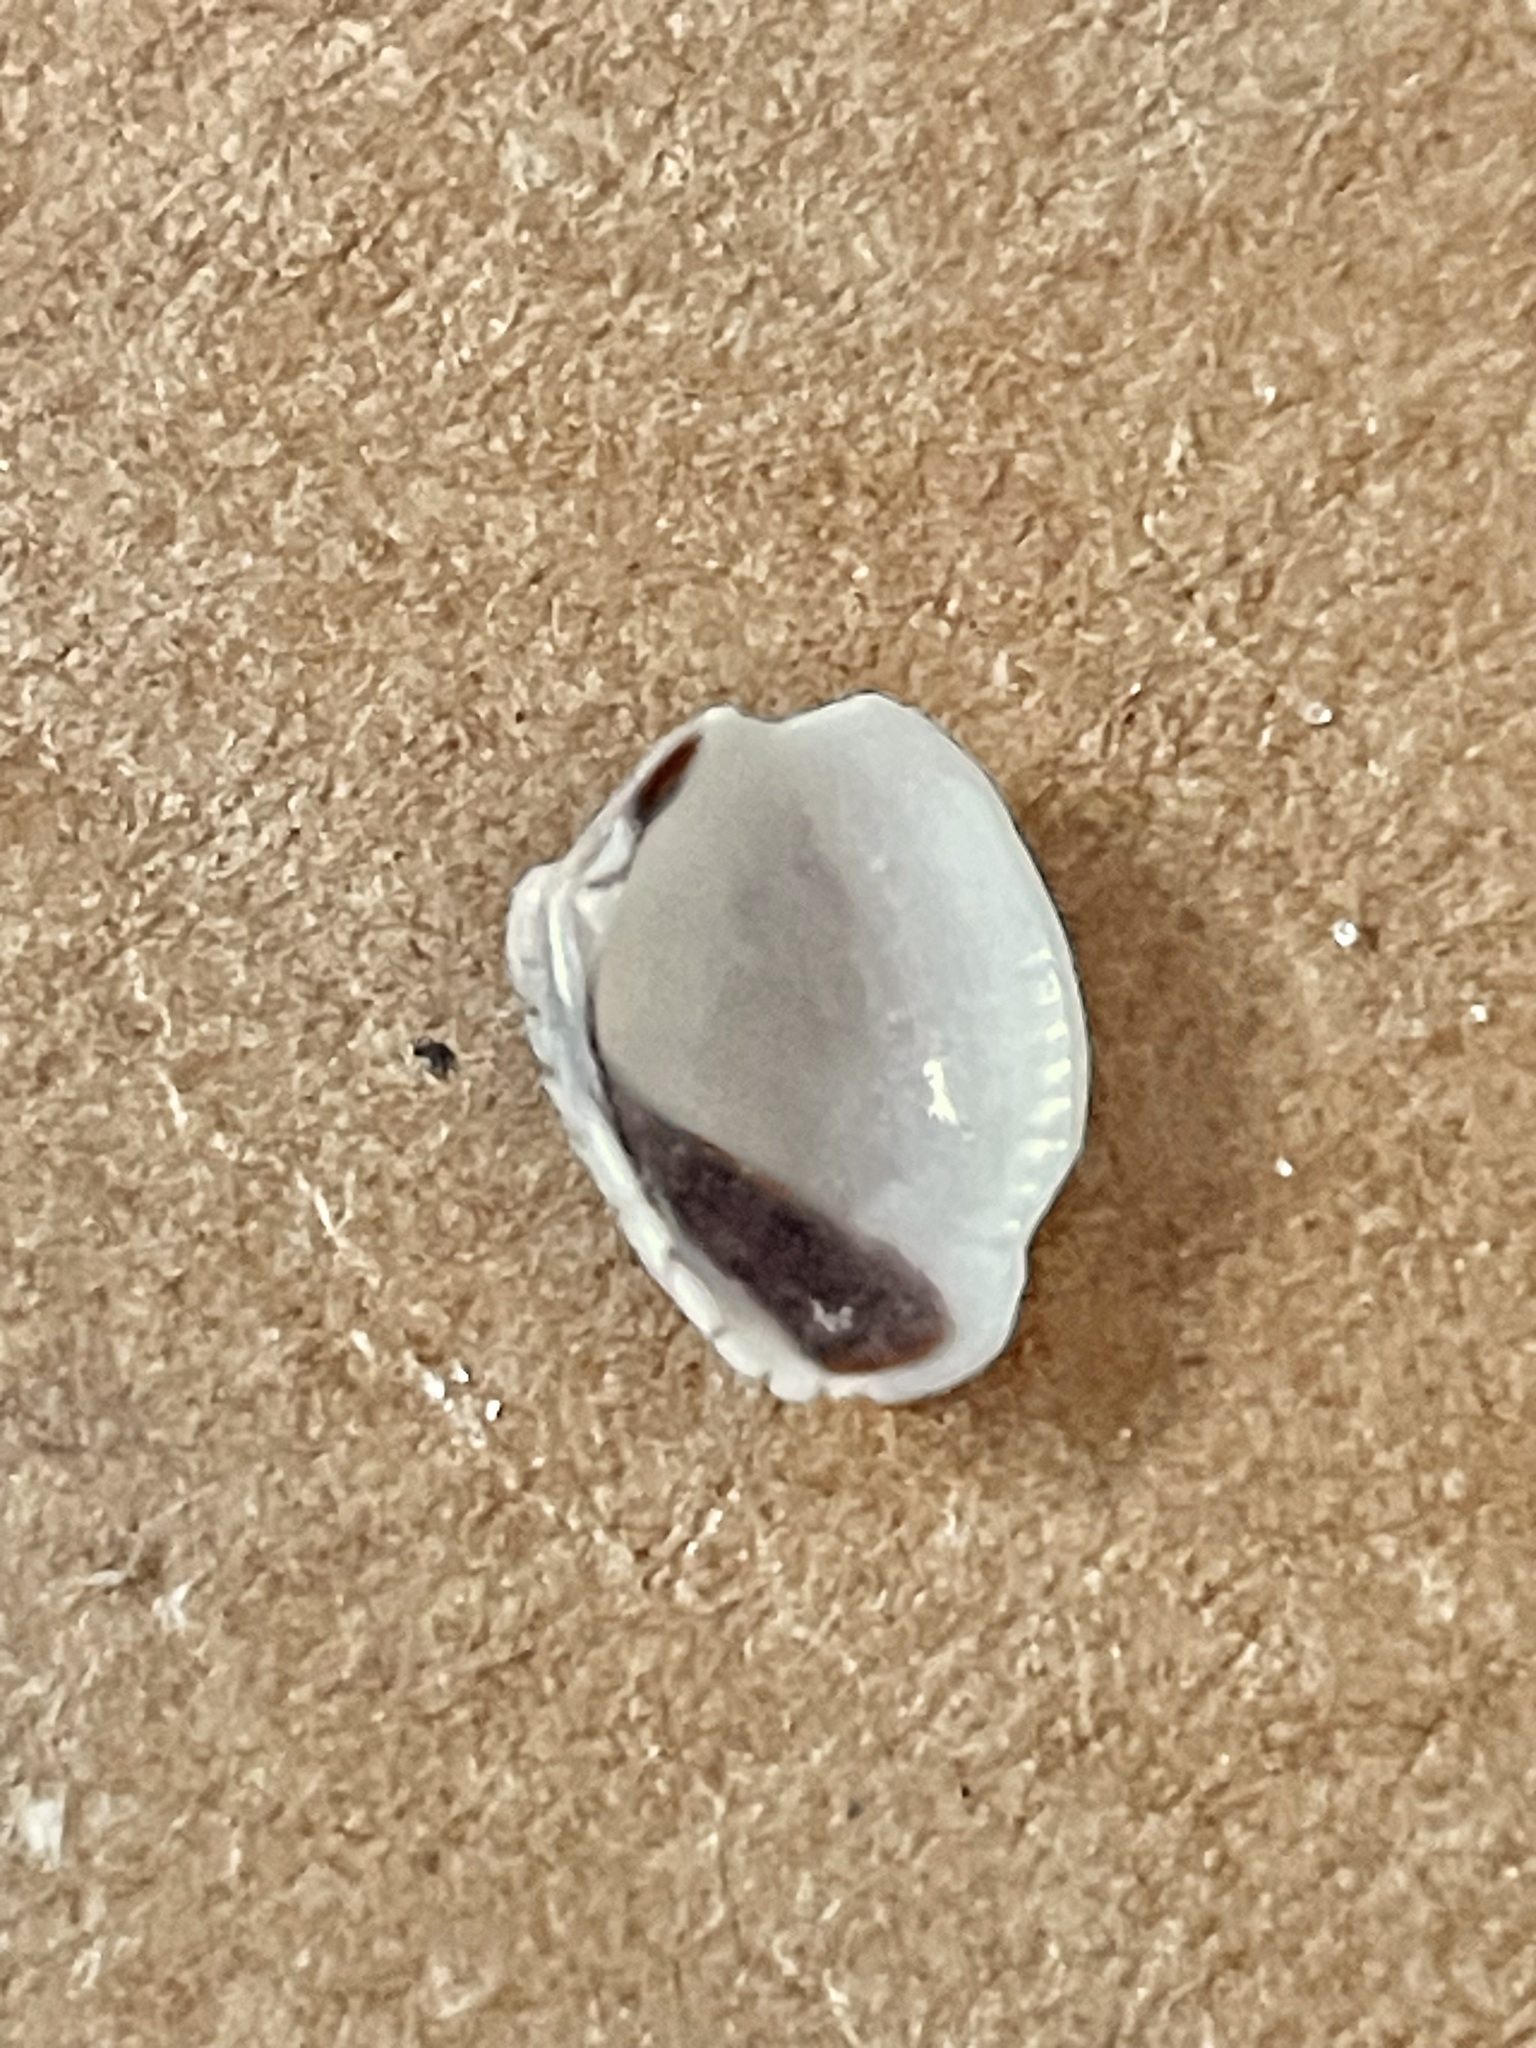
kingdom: Animalia
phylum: Mollusca
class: Bivalvia
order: Venerida
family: Veneridae
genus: Chioneryx
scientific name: Chioneryx grus
